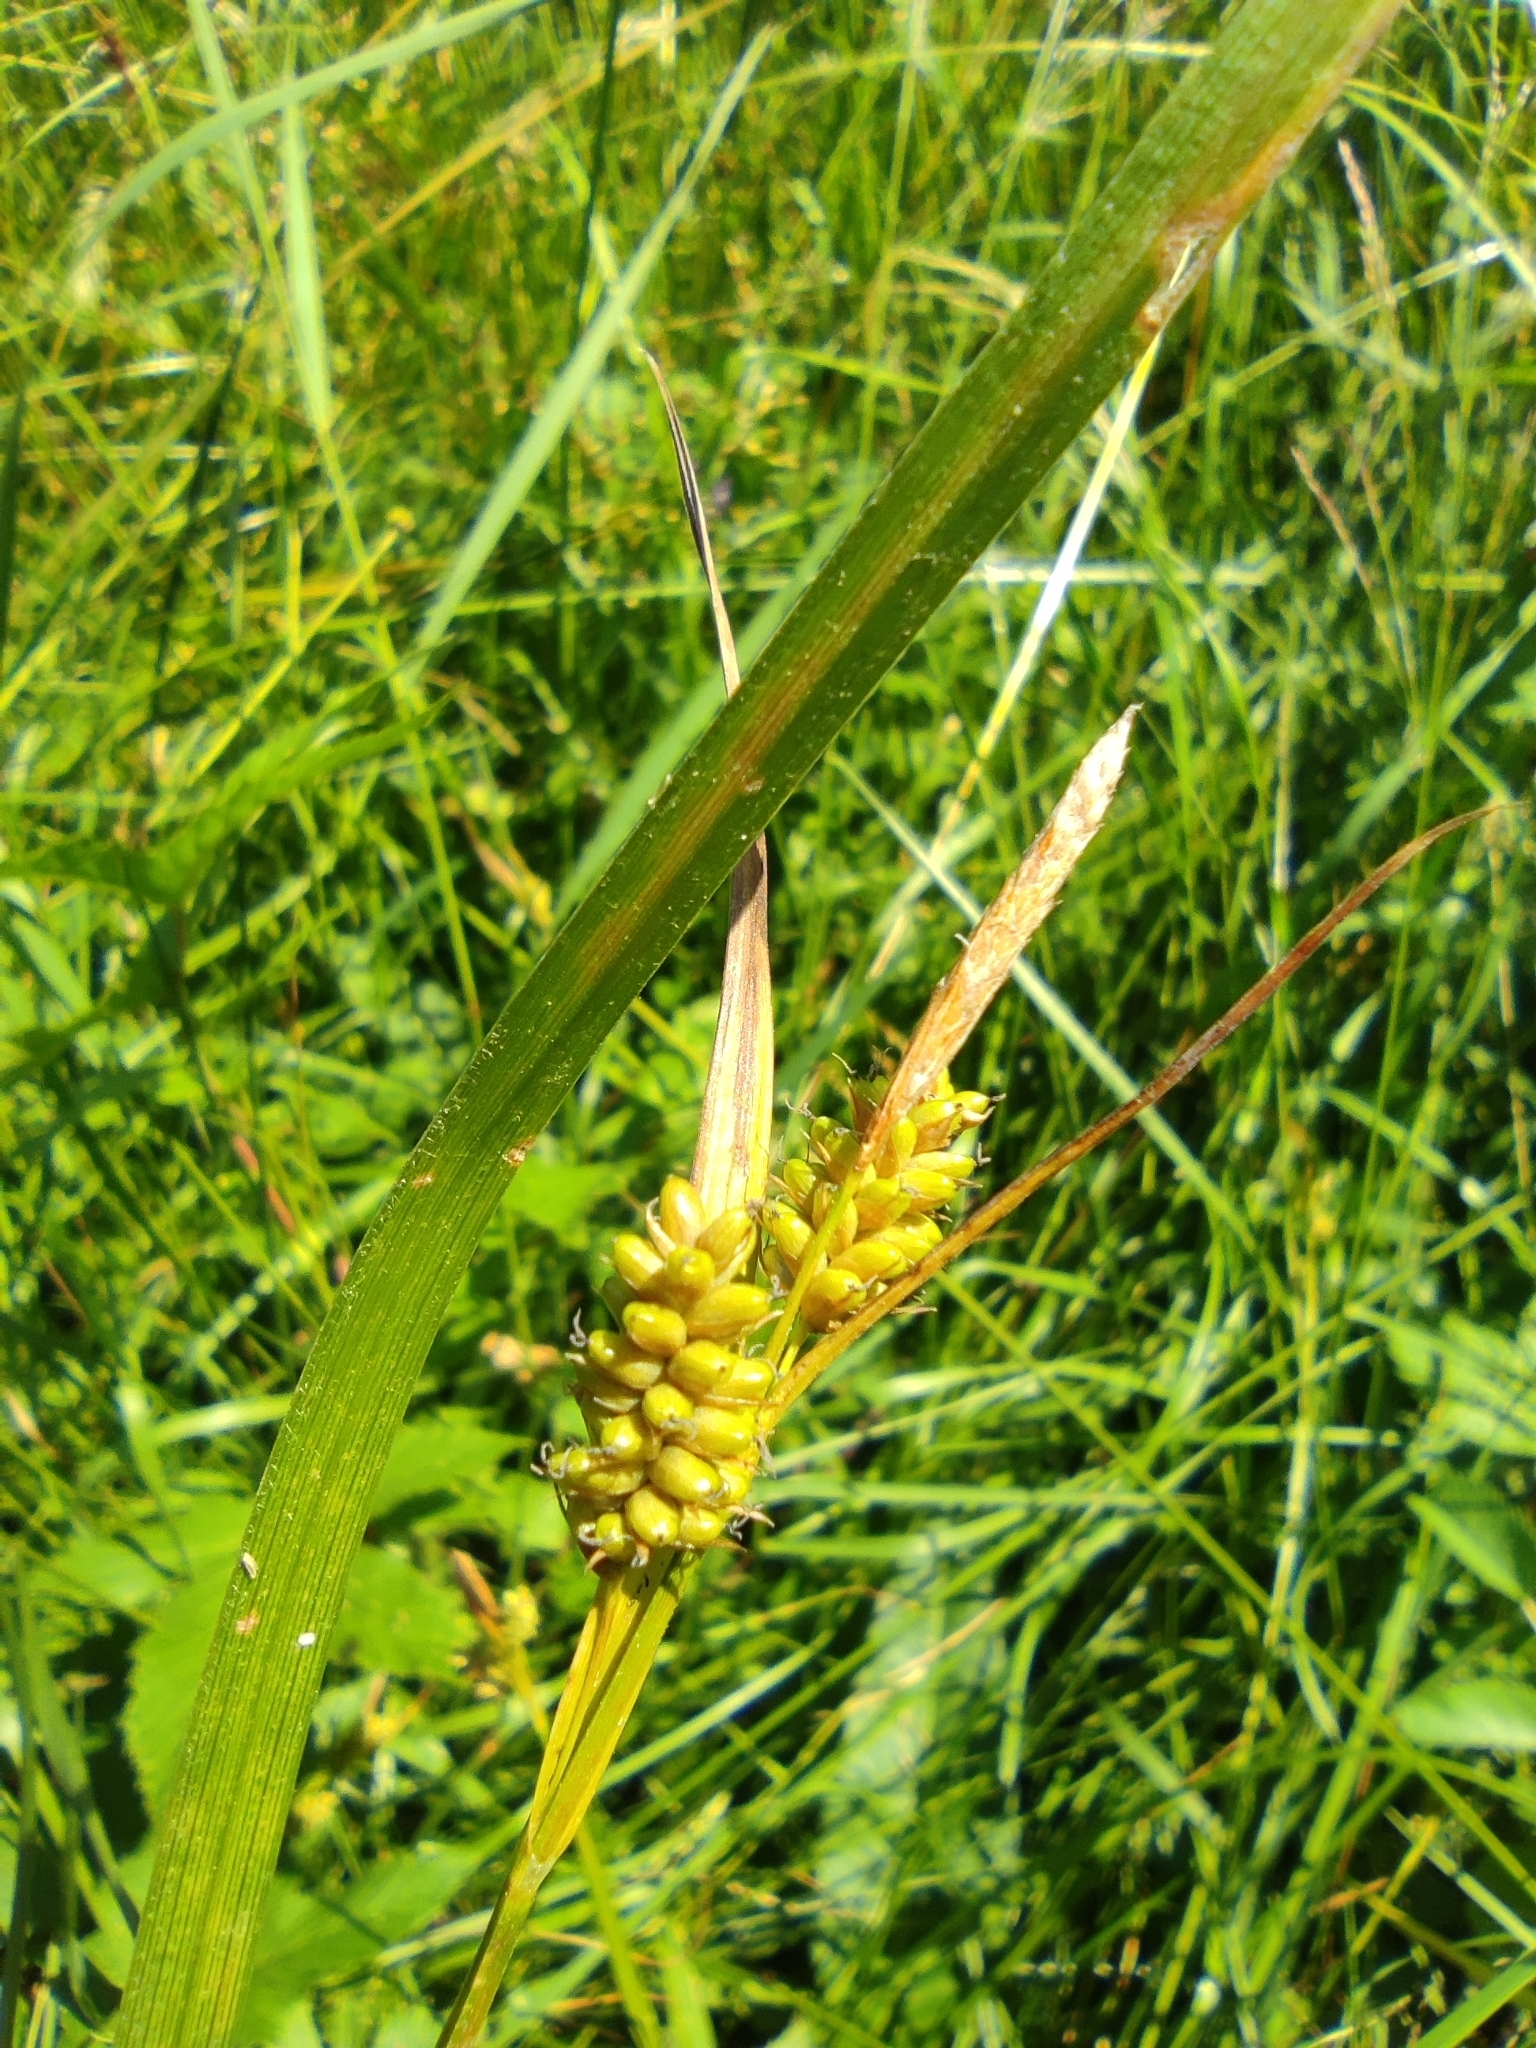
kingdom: Plantae
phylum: Tracheophyta
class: Liliopsida
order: Poales
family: Cyperaceae
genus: Carex
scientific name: Carex pallescens
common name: Pale sedge
